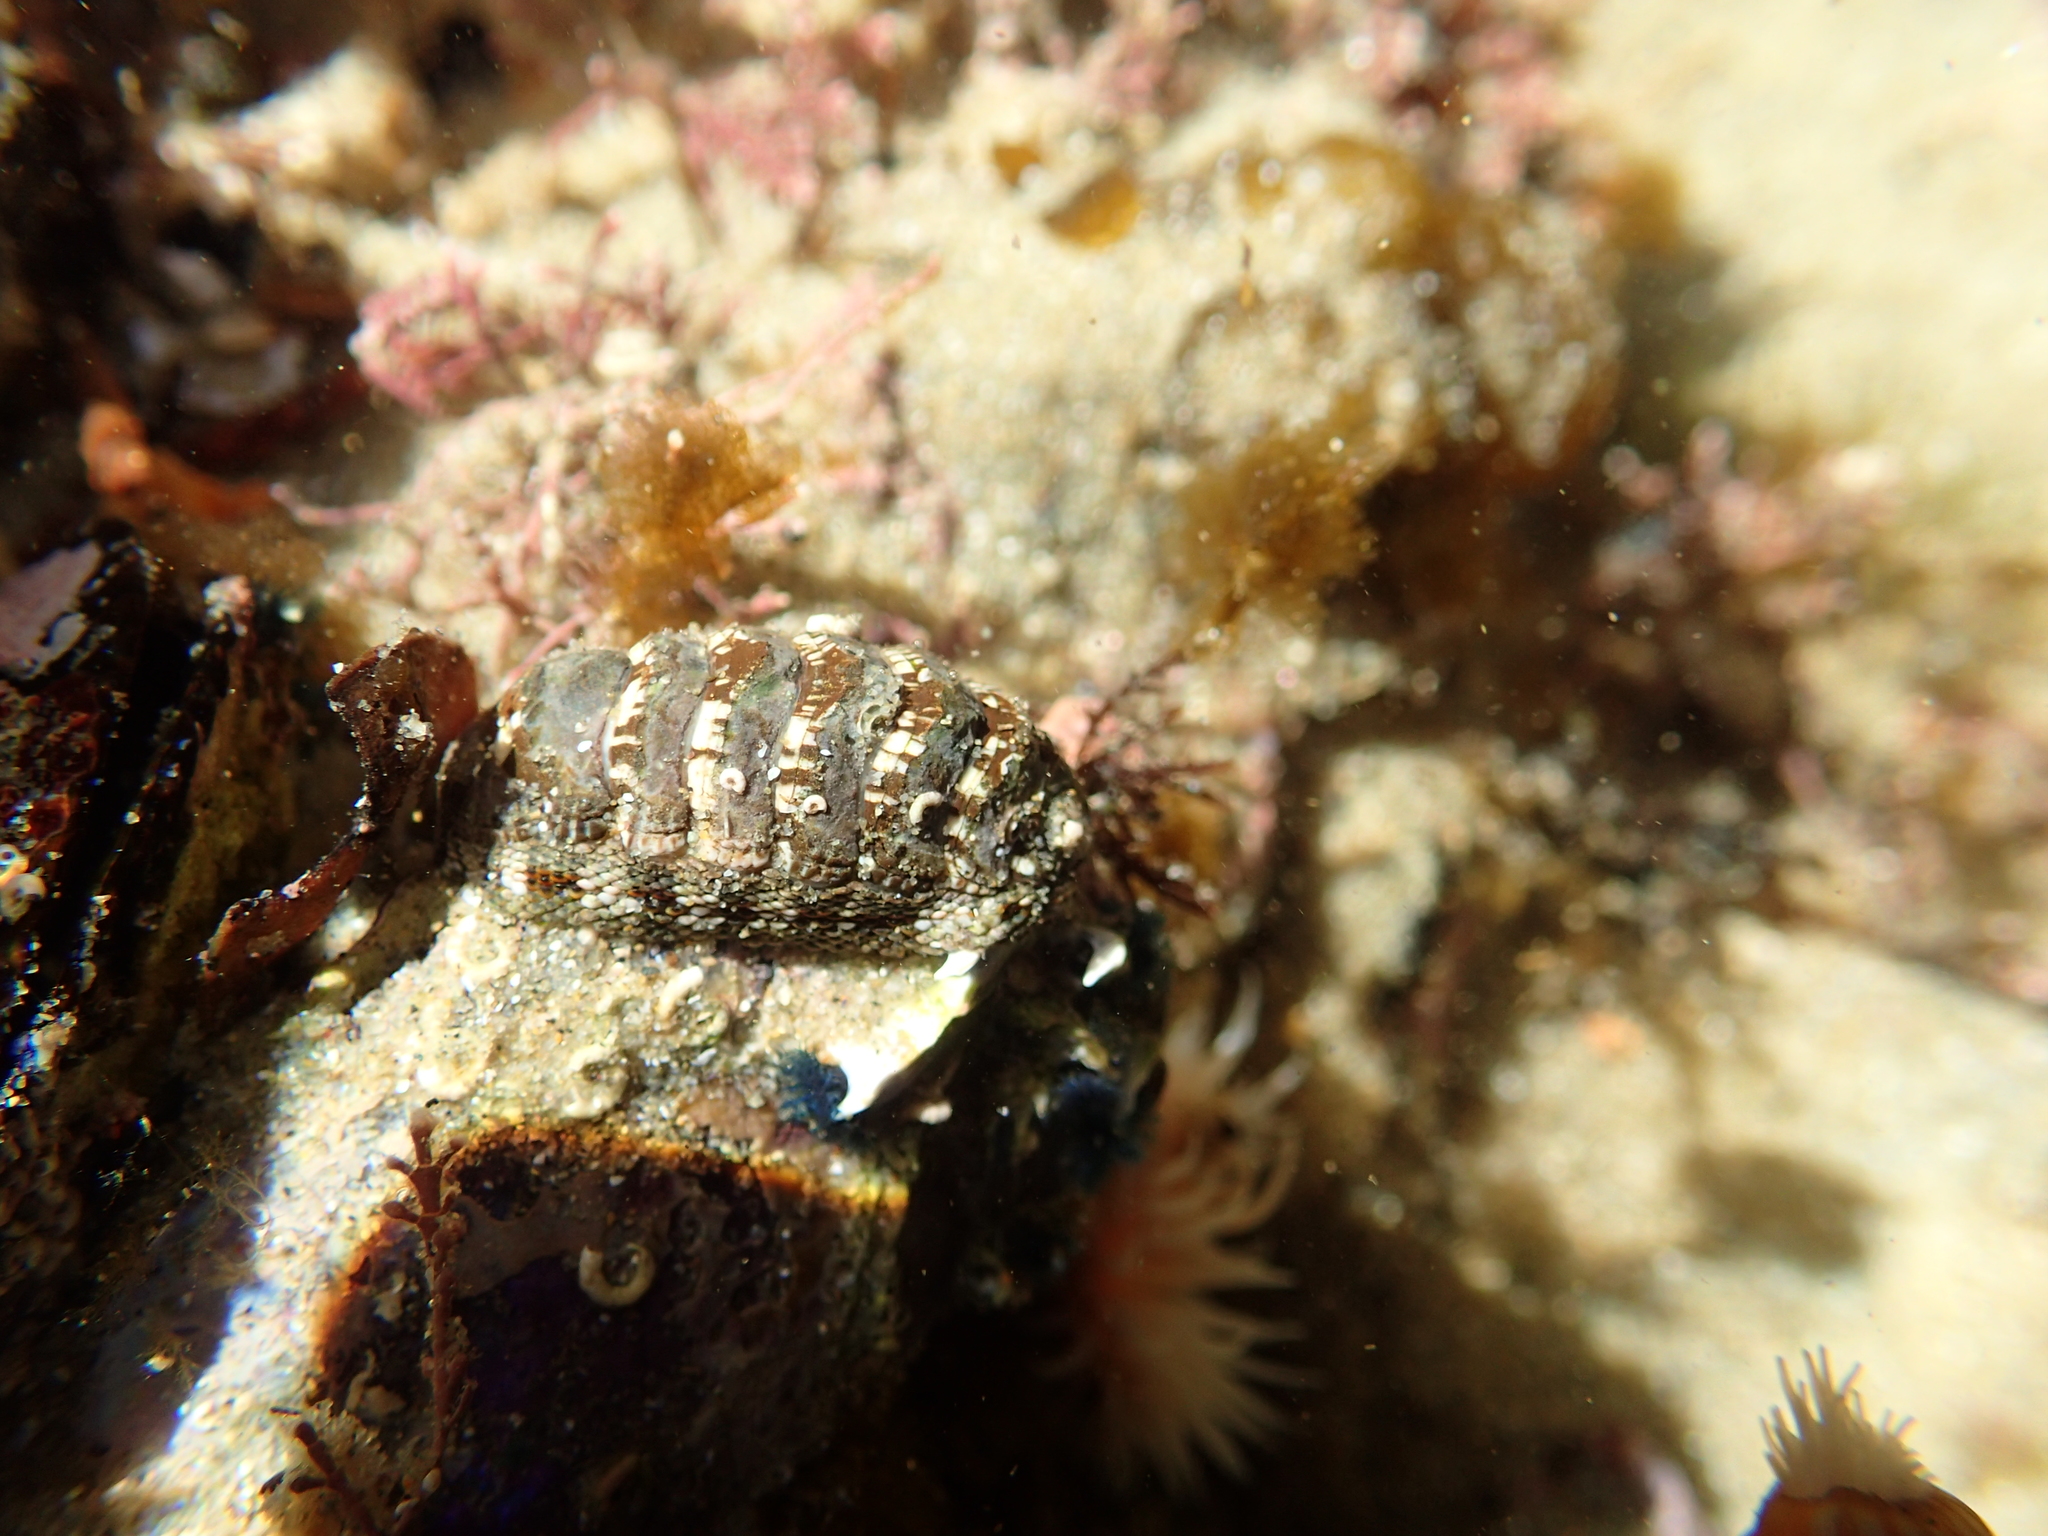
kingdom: Animalia
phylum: Mollusca
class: Polyplacophora
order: Chitonida
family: Chitonidae
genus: Sypharochiton
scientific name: Sypharochiton sinclairi
